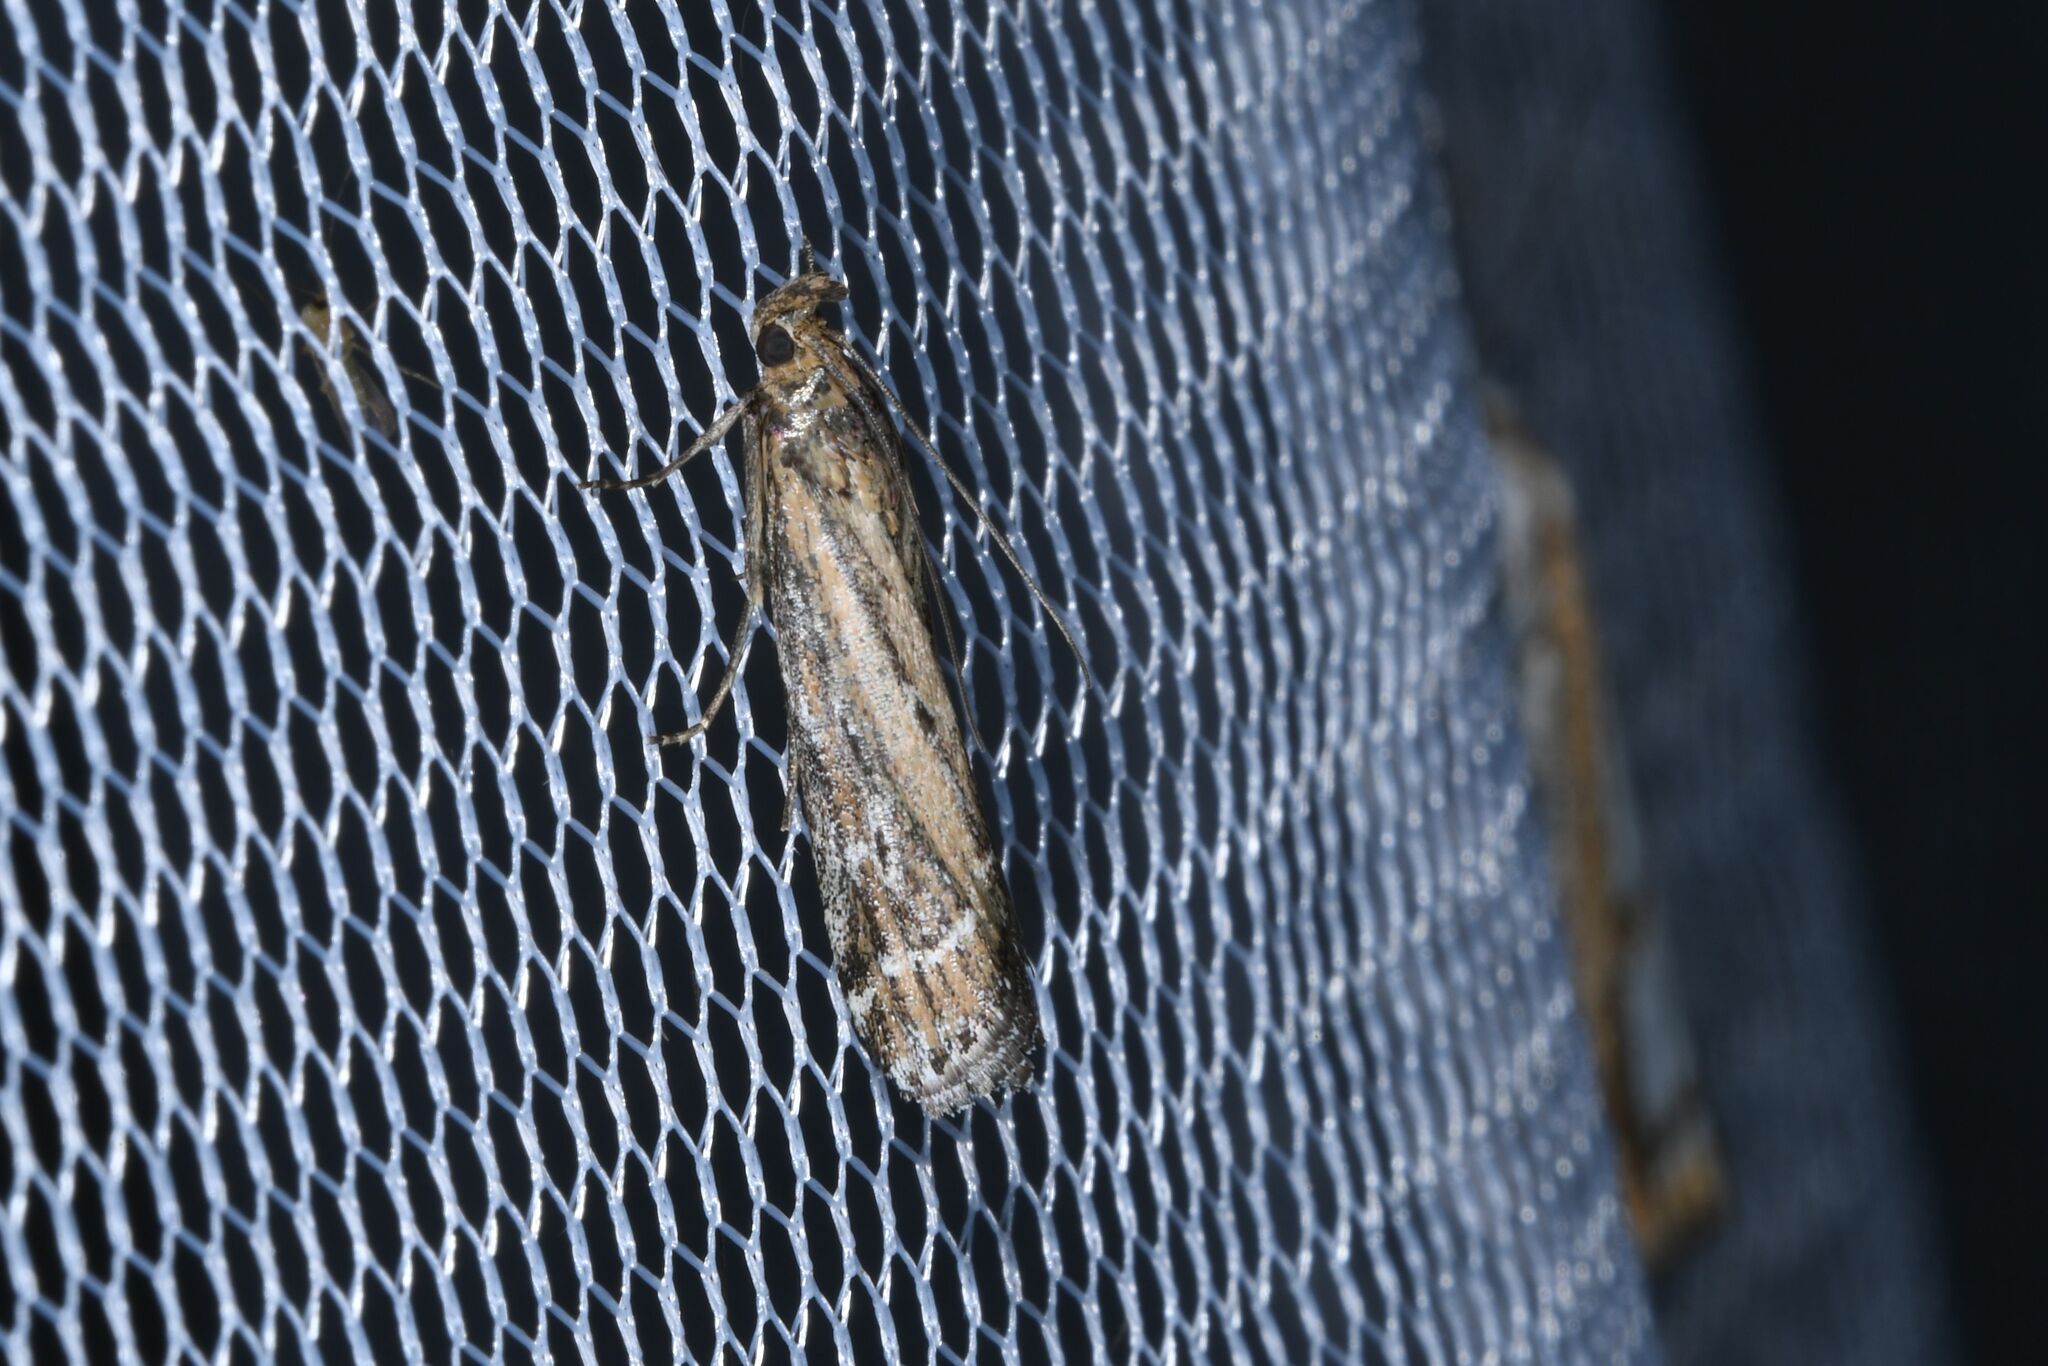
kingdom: Animalia
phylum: Arthropoda
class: Insecta
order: Lepidoptera
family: Pyralidae
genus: Pempelia
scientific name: Pempelia ornatella
